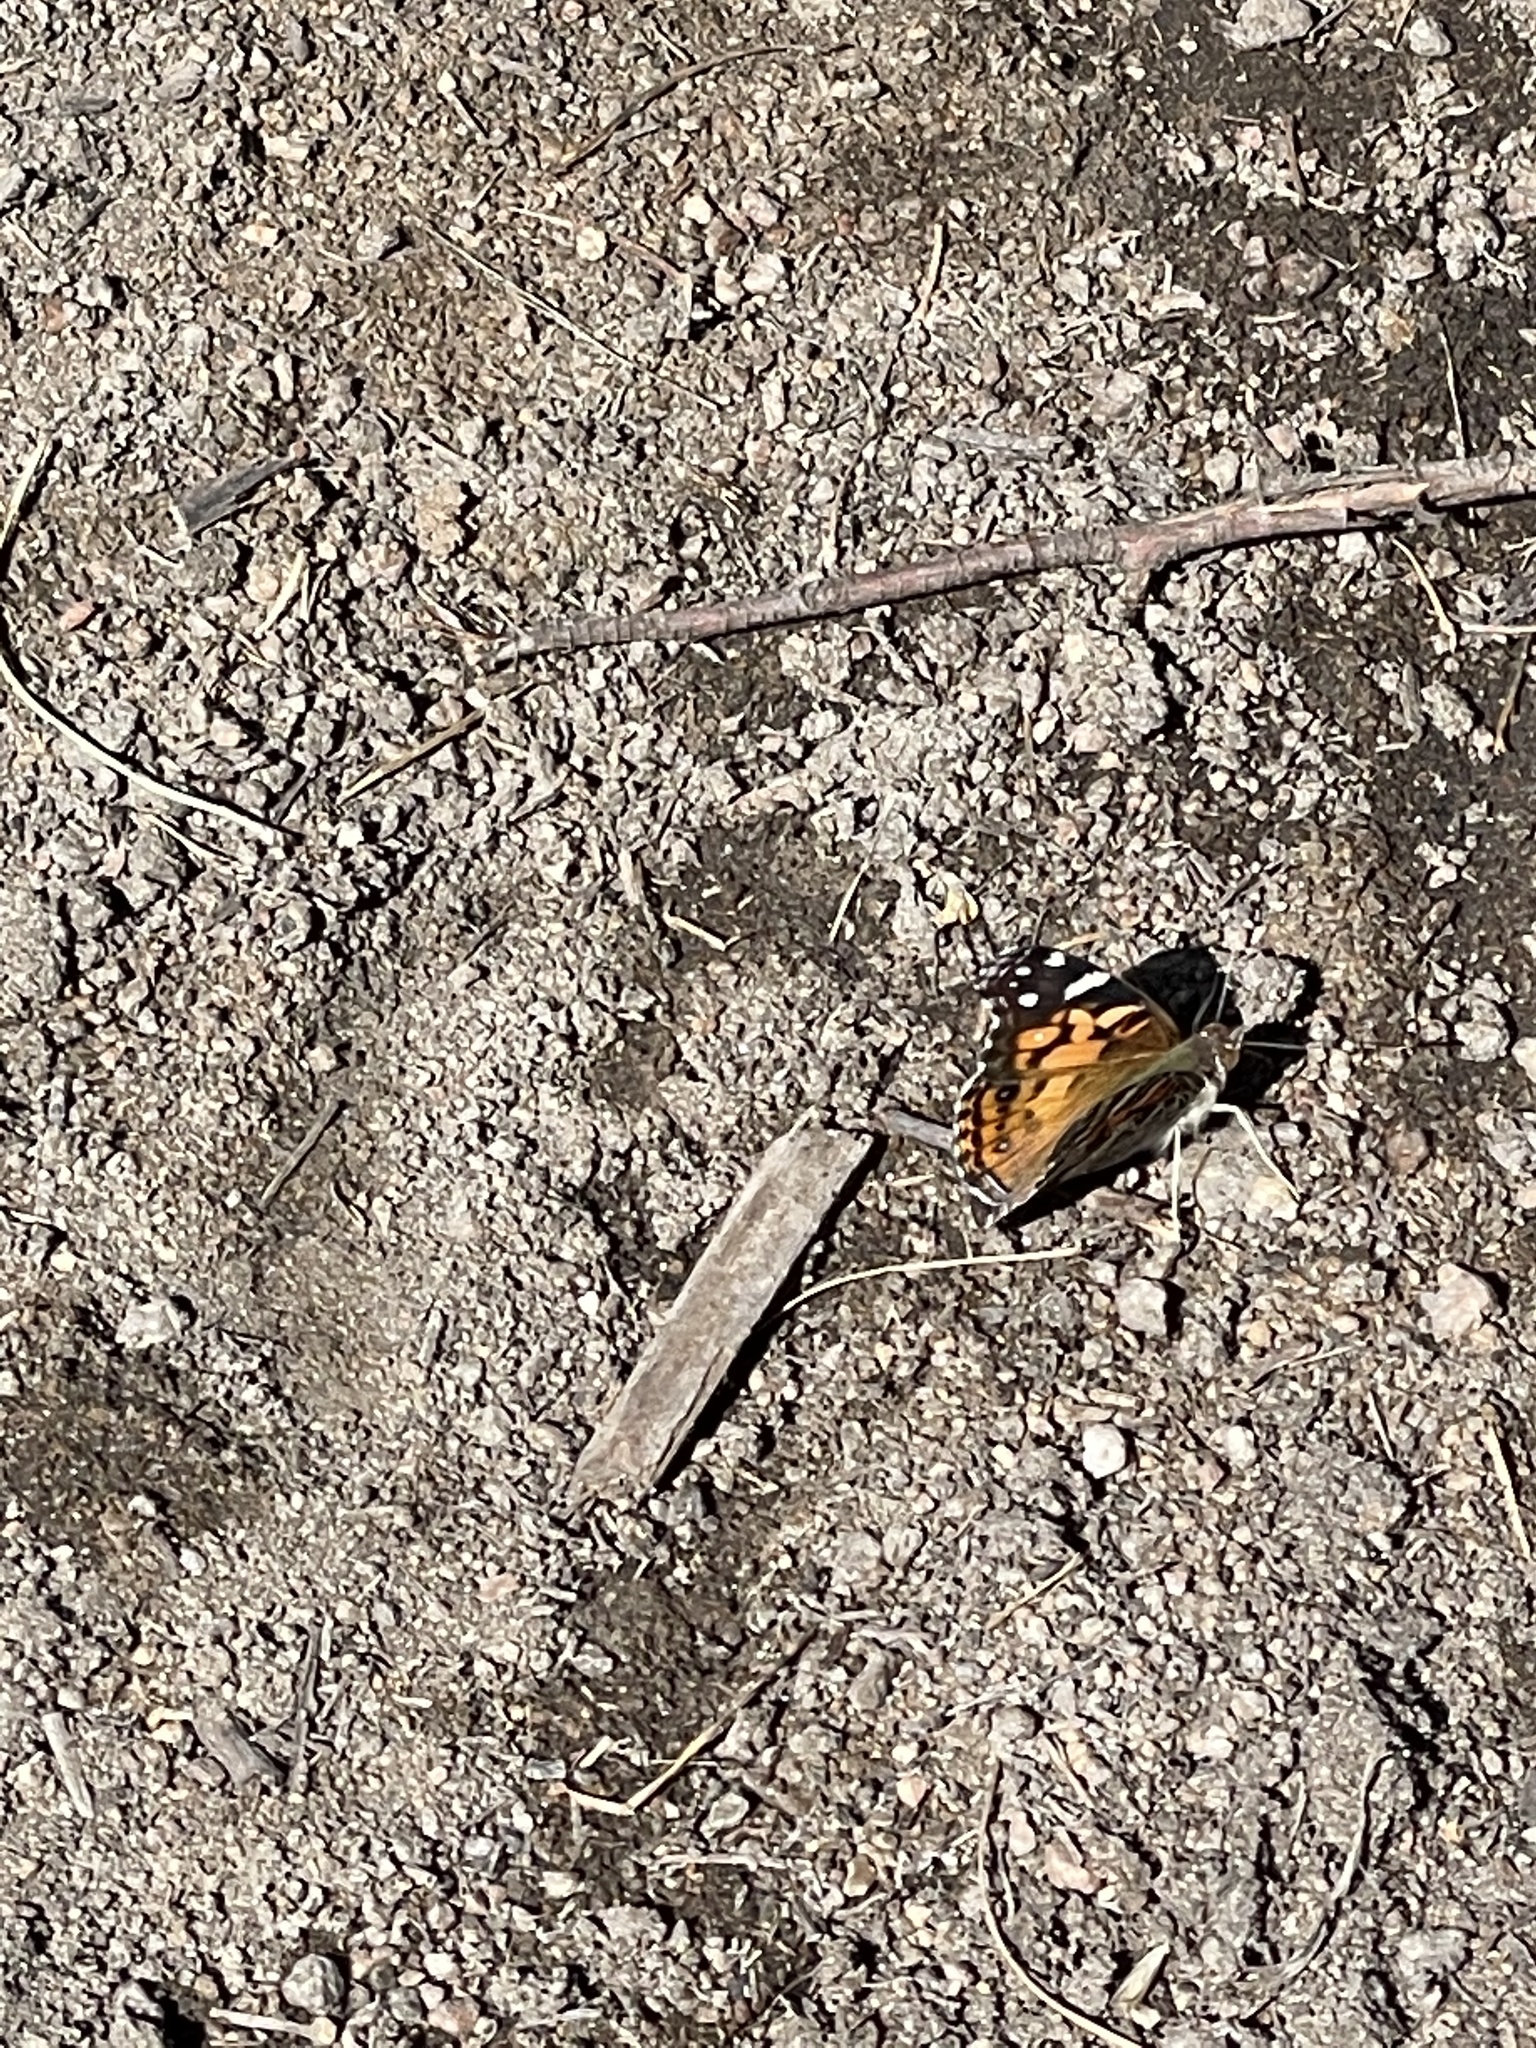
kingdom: Animalia
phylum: Arthropoda
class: Insecta
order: Lepidoptera
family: Nymphalidae
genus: Vanessa
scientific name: Vanessa virginiensis
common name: American lady
